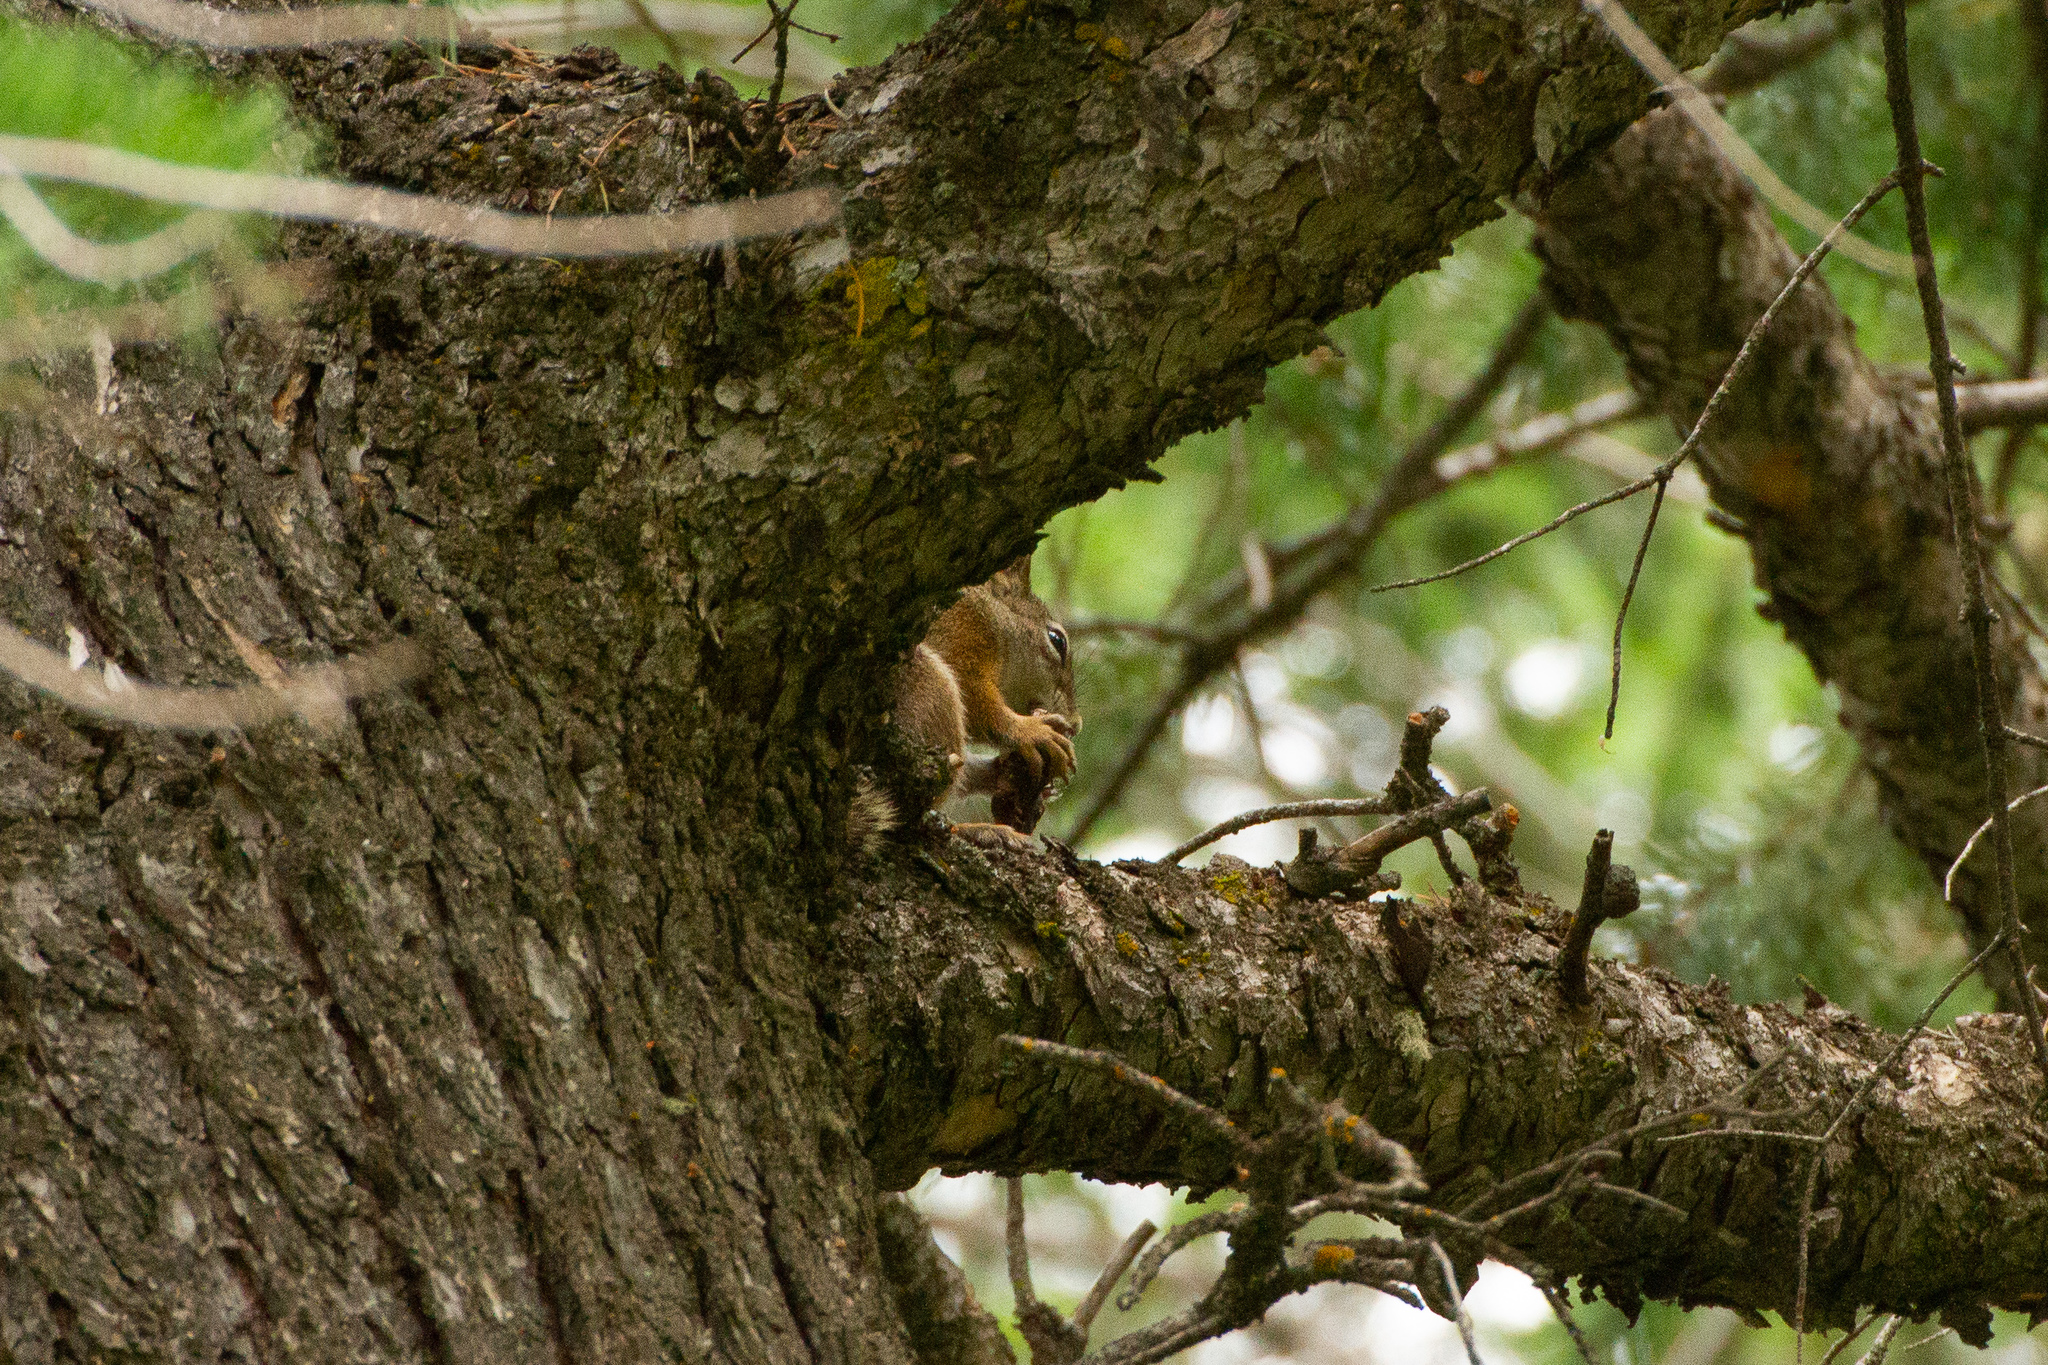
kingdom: Animalia
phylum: Chordata
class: Mammalia
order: Rodentia
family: Sciuridae
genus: Tamiasciurus
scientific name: Tamiasciurus hudsonicus
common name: Red squirrel
